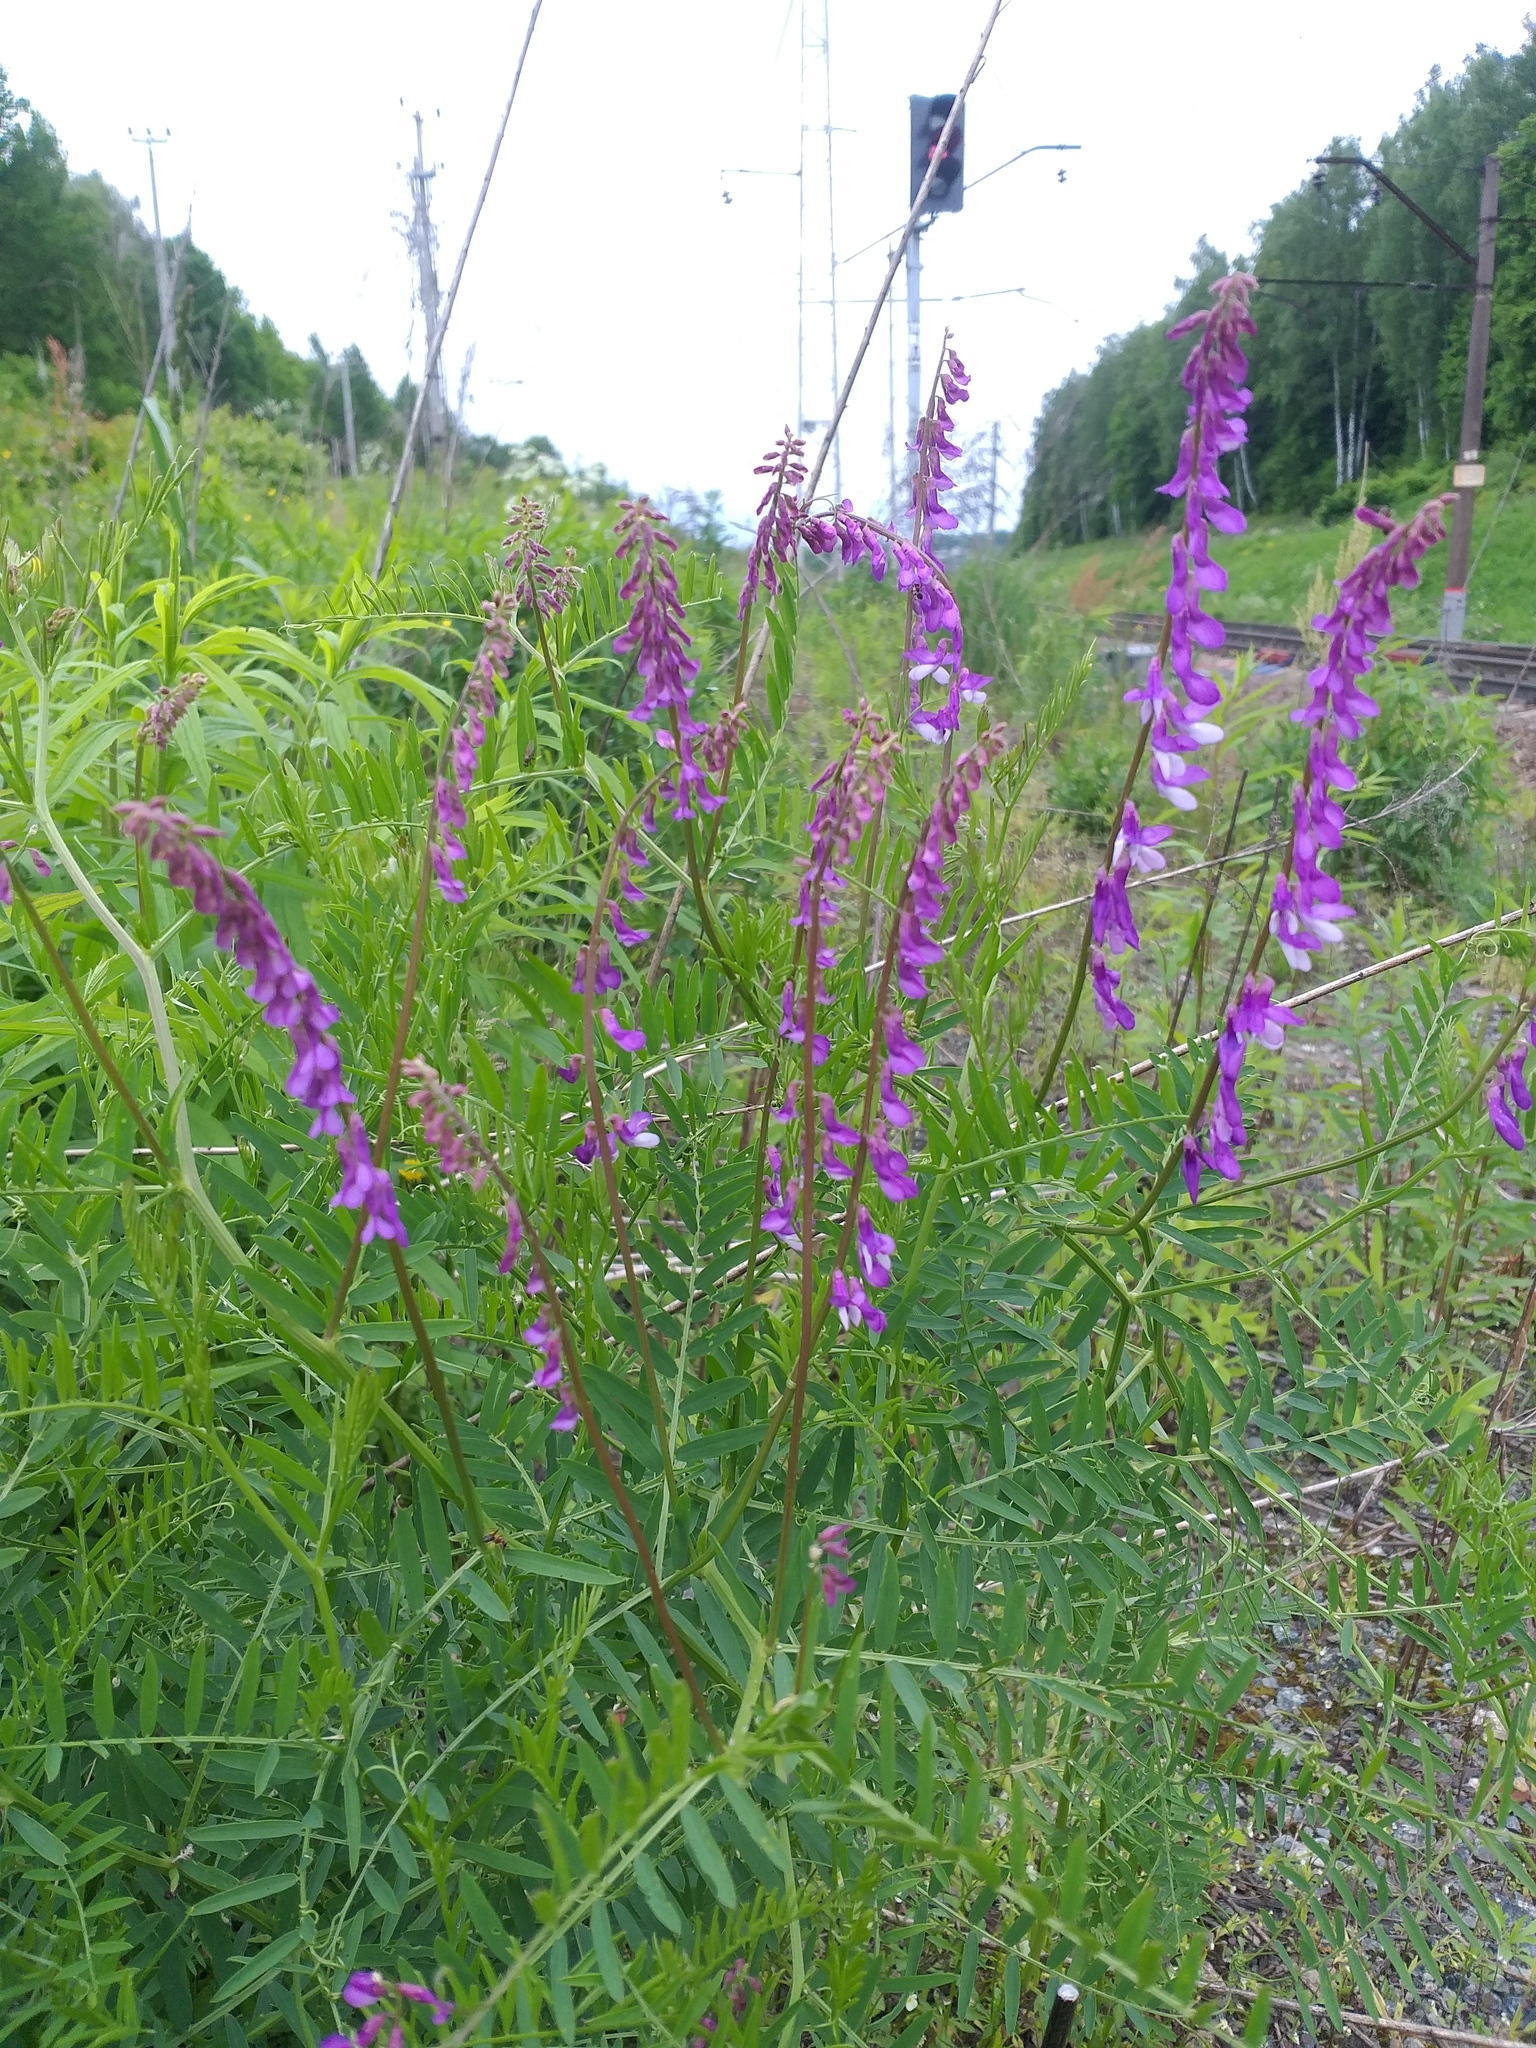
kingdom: Plantae
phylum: Tracheophyta
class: Magnoliopsida
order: Fabales
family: Fabaceae
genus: Vicia
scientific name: Vicia tenuifolia
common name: Fine-leaved vetch
